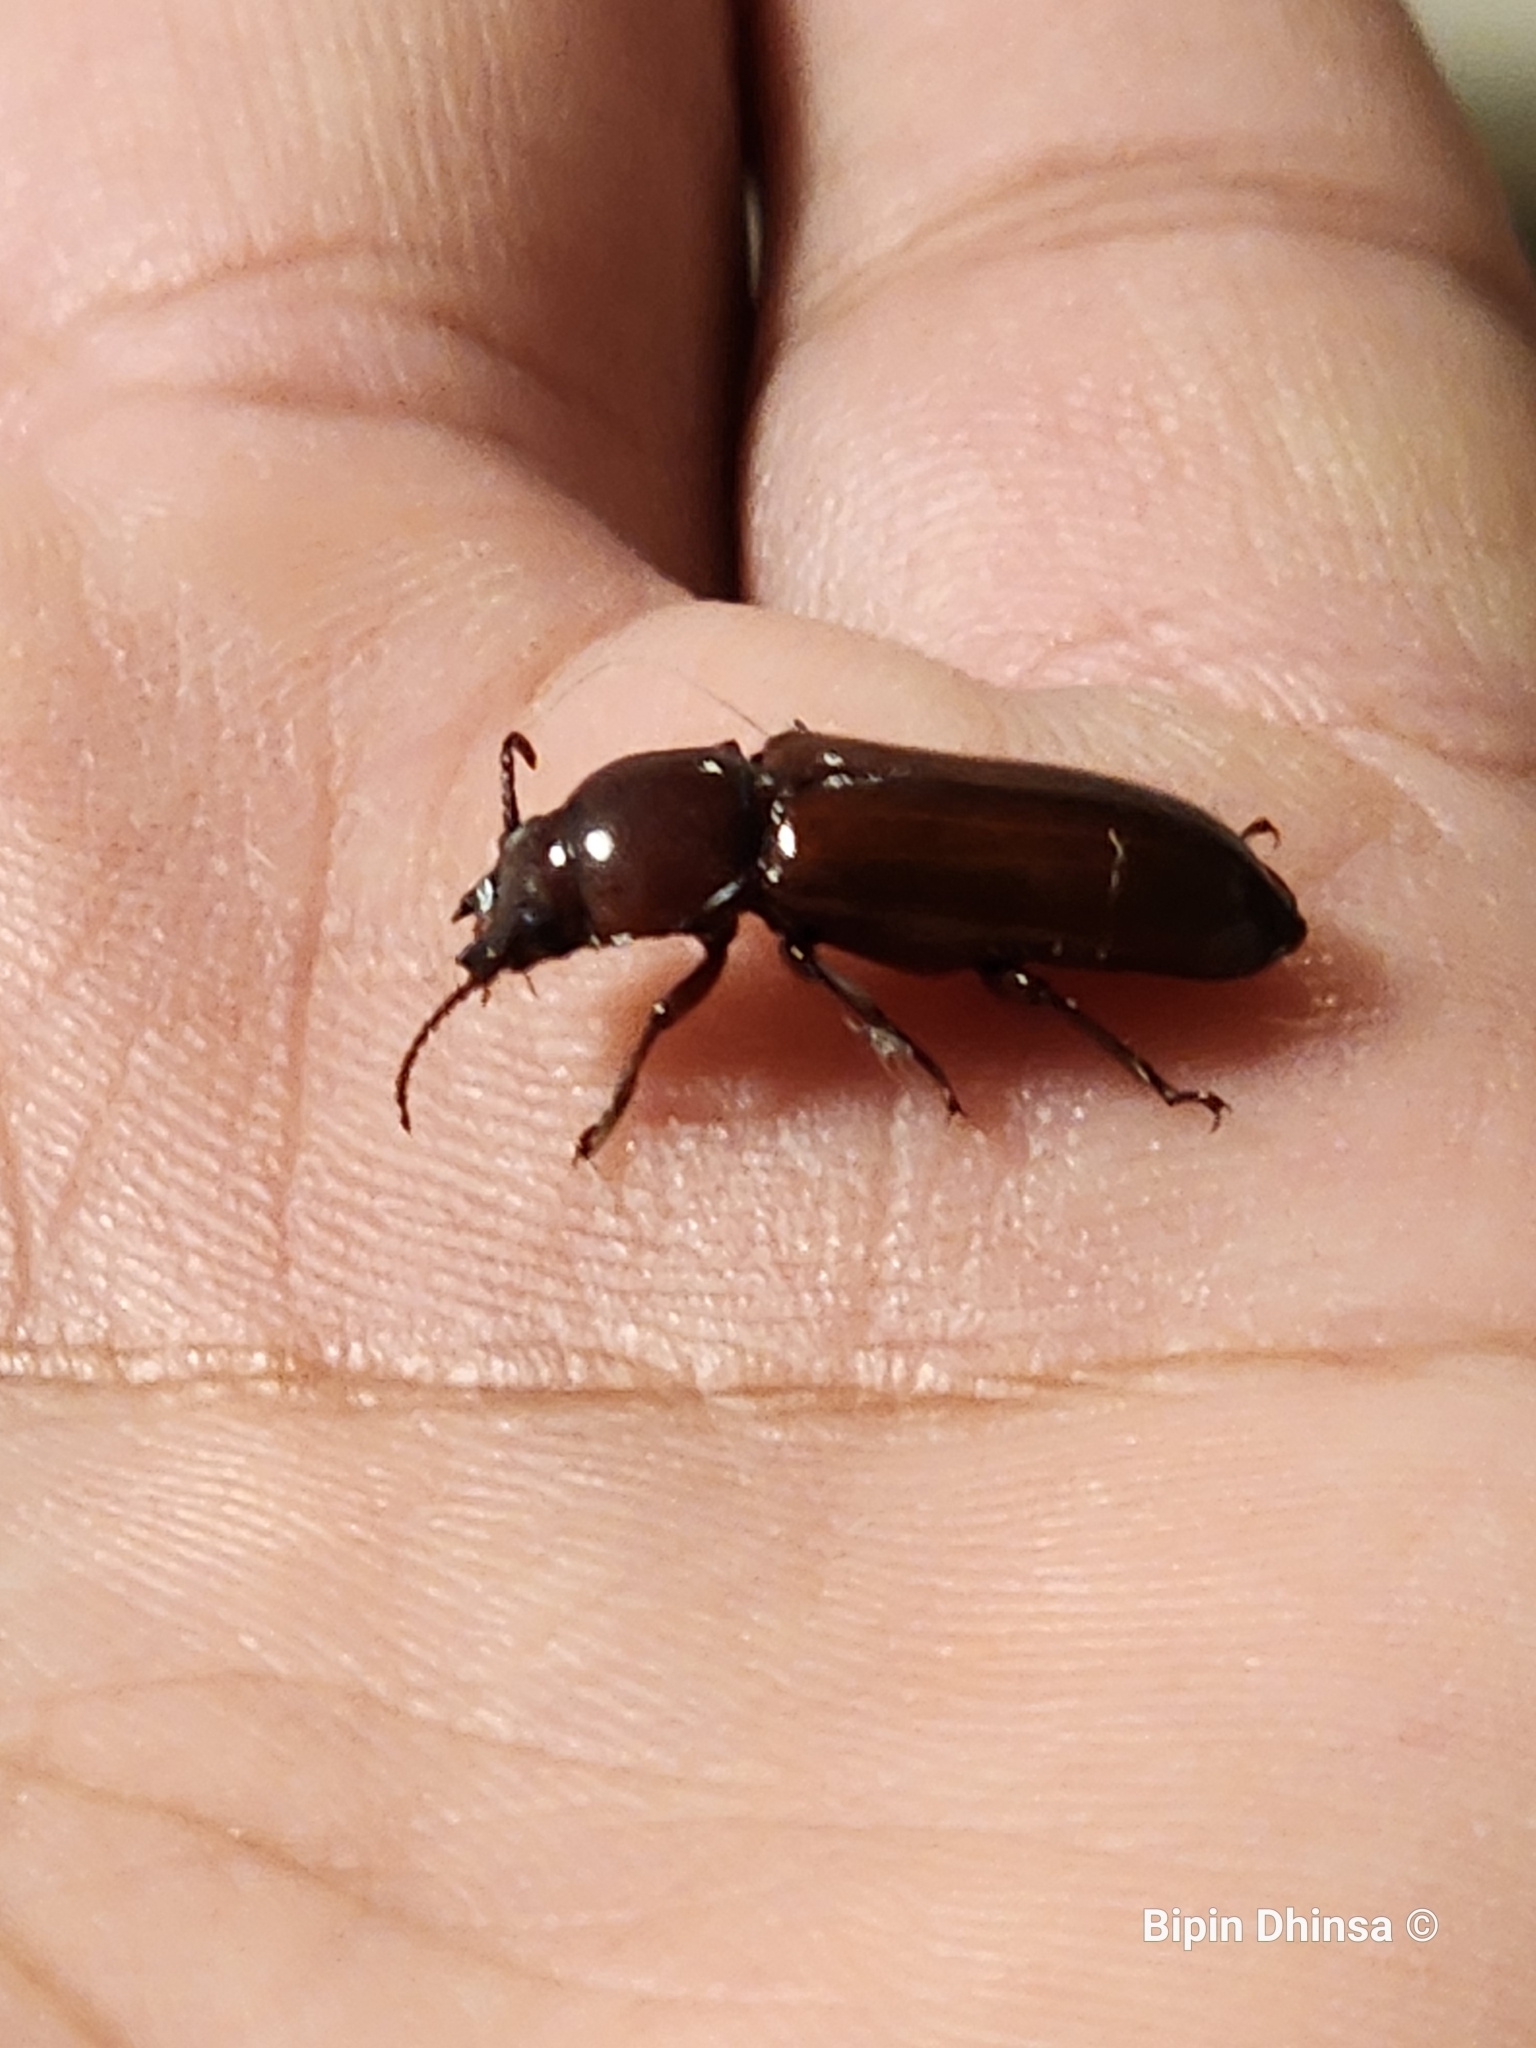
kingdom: Animalia
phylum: Arthropoda
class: Insecta
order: Coleoptera
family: Cerambycidae
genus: Neandra
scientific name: Neandra brunnea
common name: Pole borer
